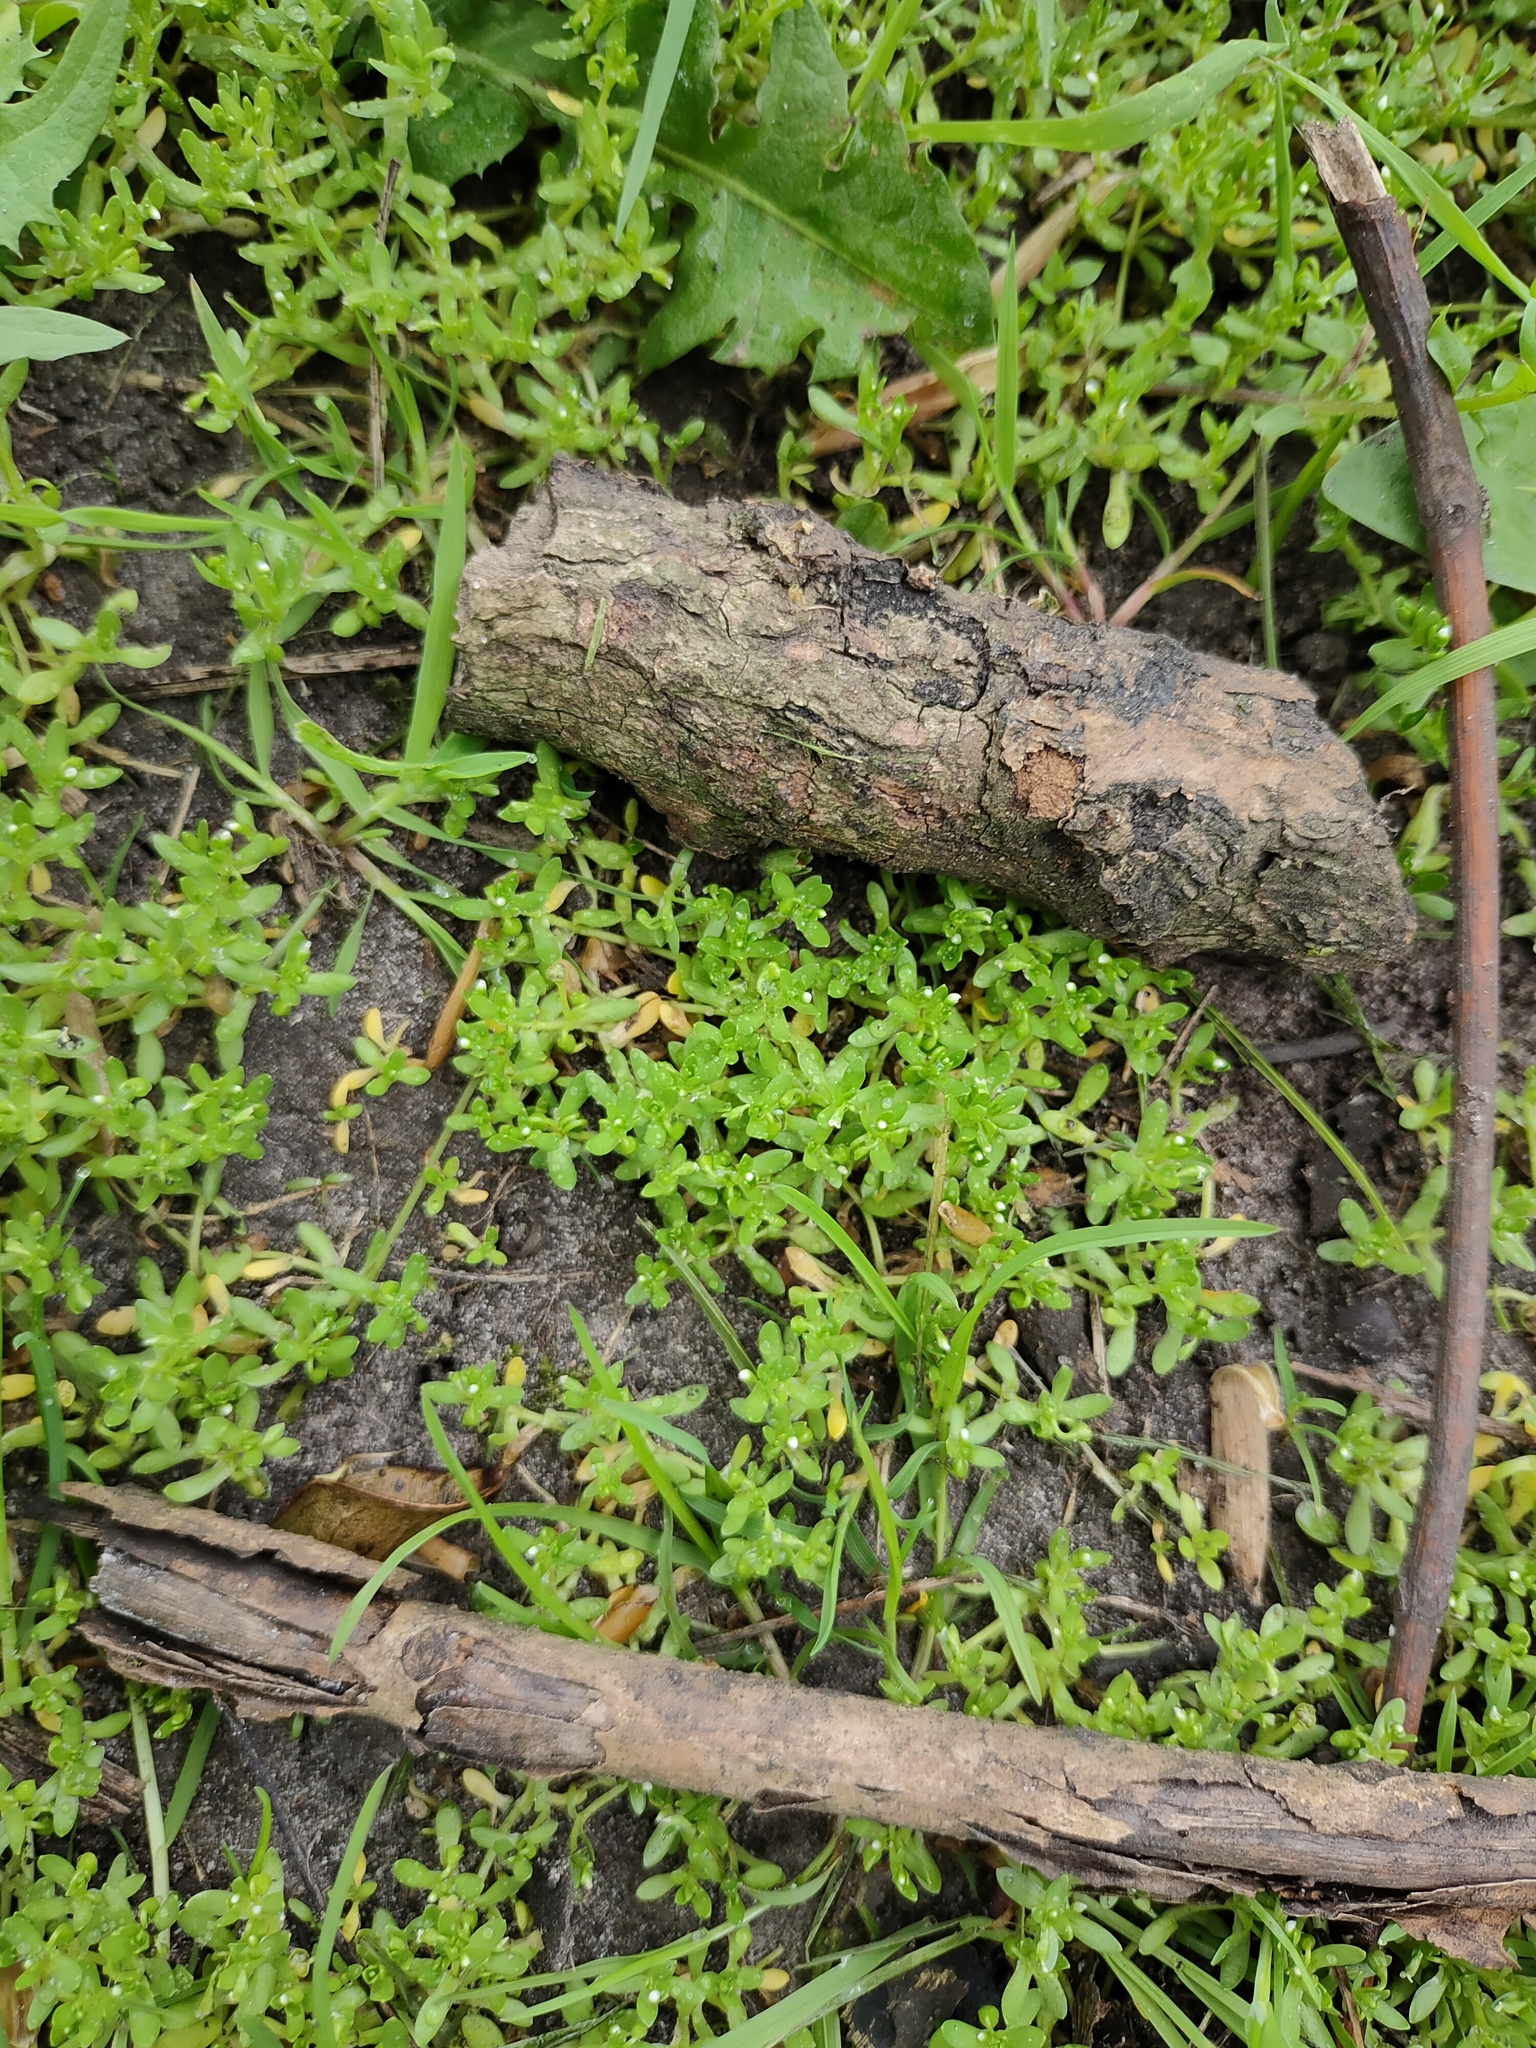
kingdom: Plantae
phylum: Tracheophyta
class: Magnoliopsida
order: Caryophyllales
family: Montiaceae
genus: Montia
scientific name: Montia fontana
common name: Blinks
